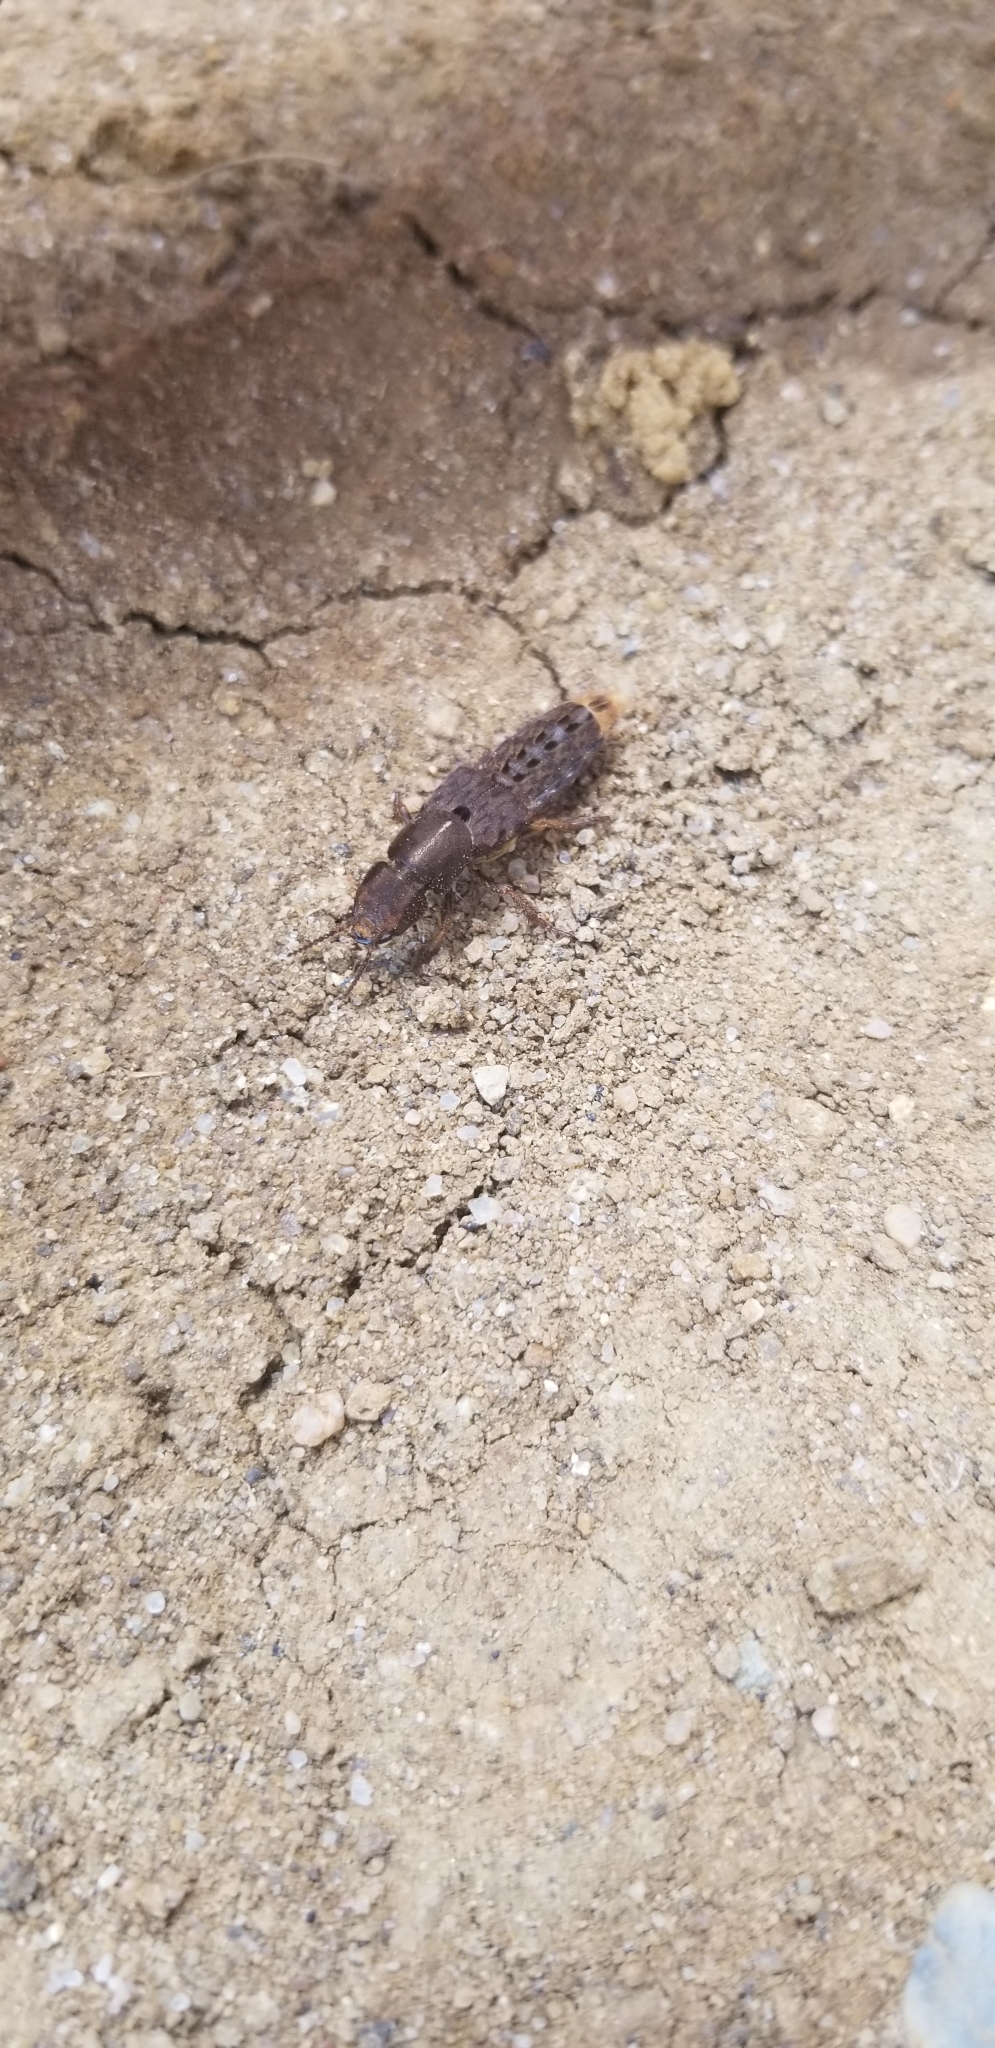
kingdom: Animalia
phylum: Arthropoda
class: Insecta
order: Coleoptera
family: Staphylinidae
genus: Platydracus
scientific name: Platydracus maculosus
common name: Brown rove beetle
